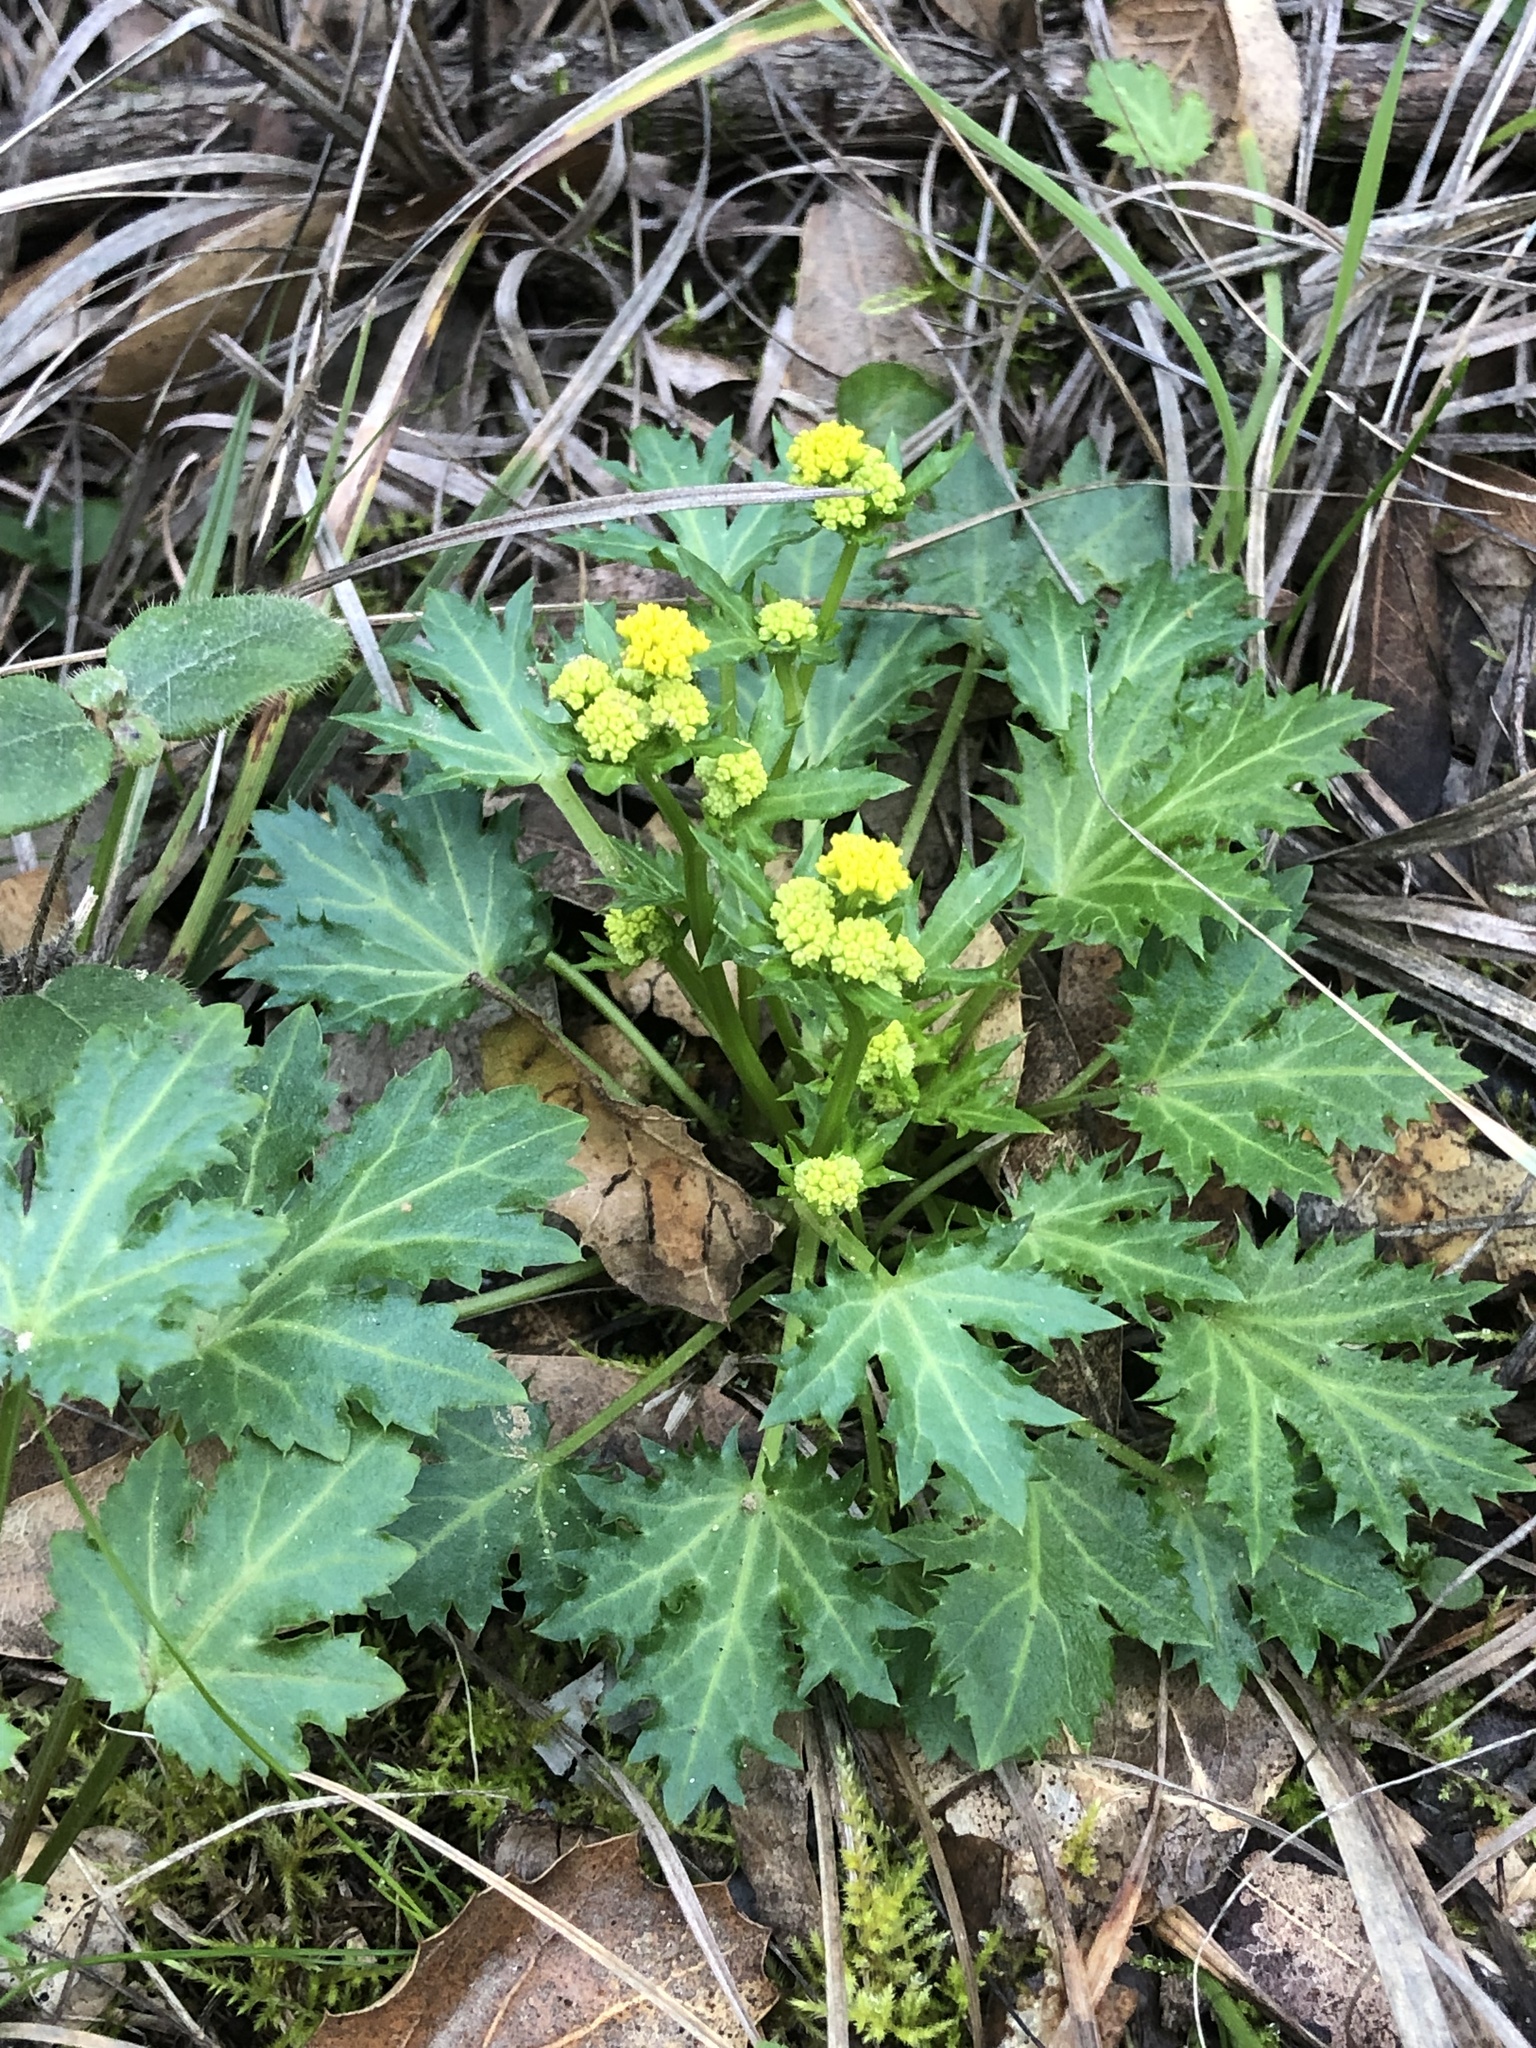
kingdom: Plantae
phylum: Tracheophyta
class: Magnoliopsida
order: Apiales
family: Apiaceae
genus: Sanicula
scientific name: Sanicula laciniata
